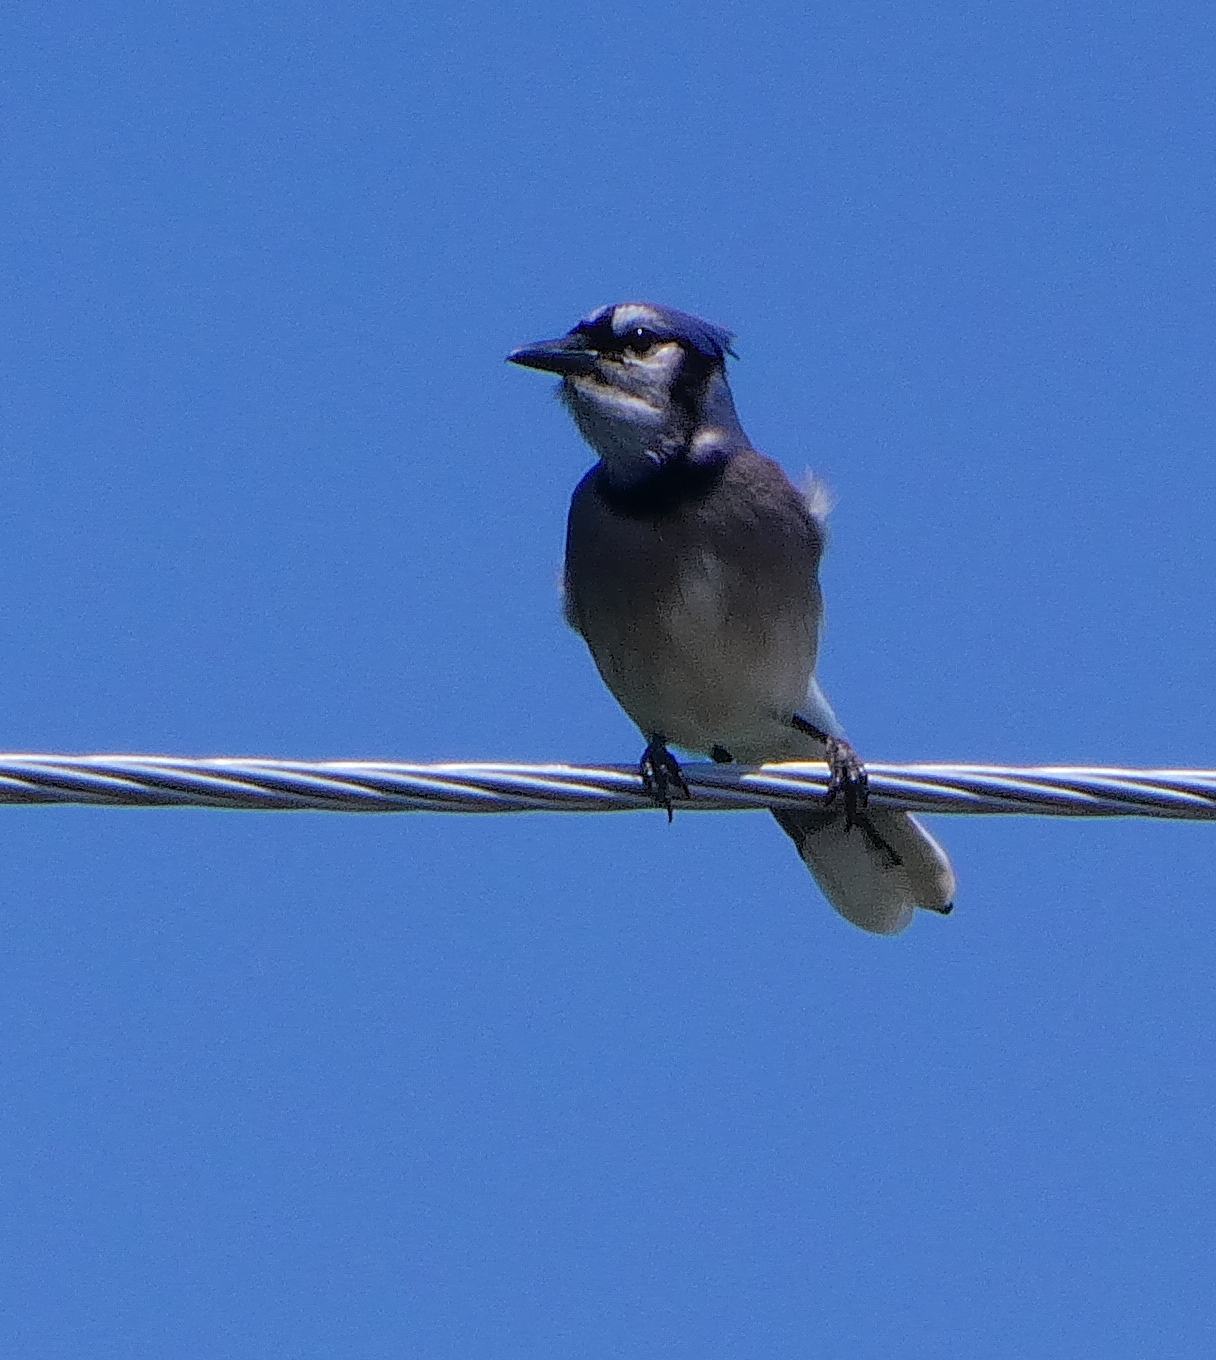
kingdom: Animalia
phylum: Chordata
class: Aves
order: Passeriformes
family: Corvidae
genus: Cyanocitta
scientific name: Cyanocitta cristata
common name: Blue jay
